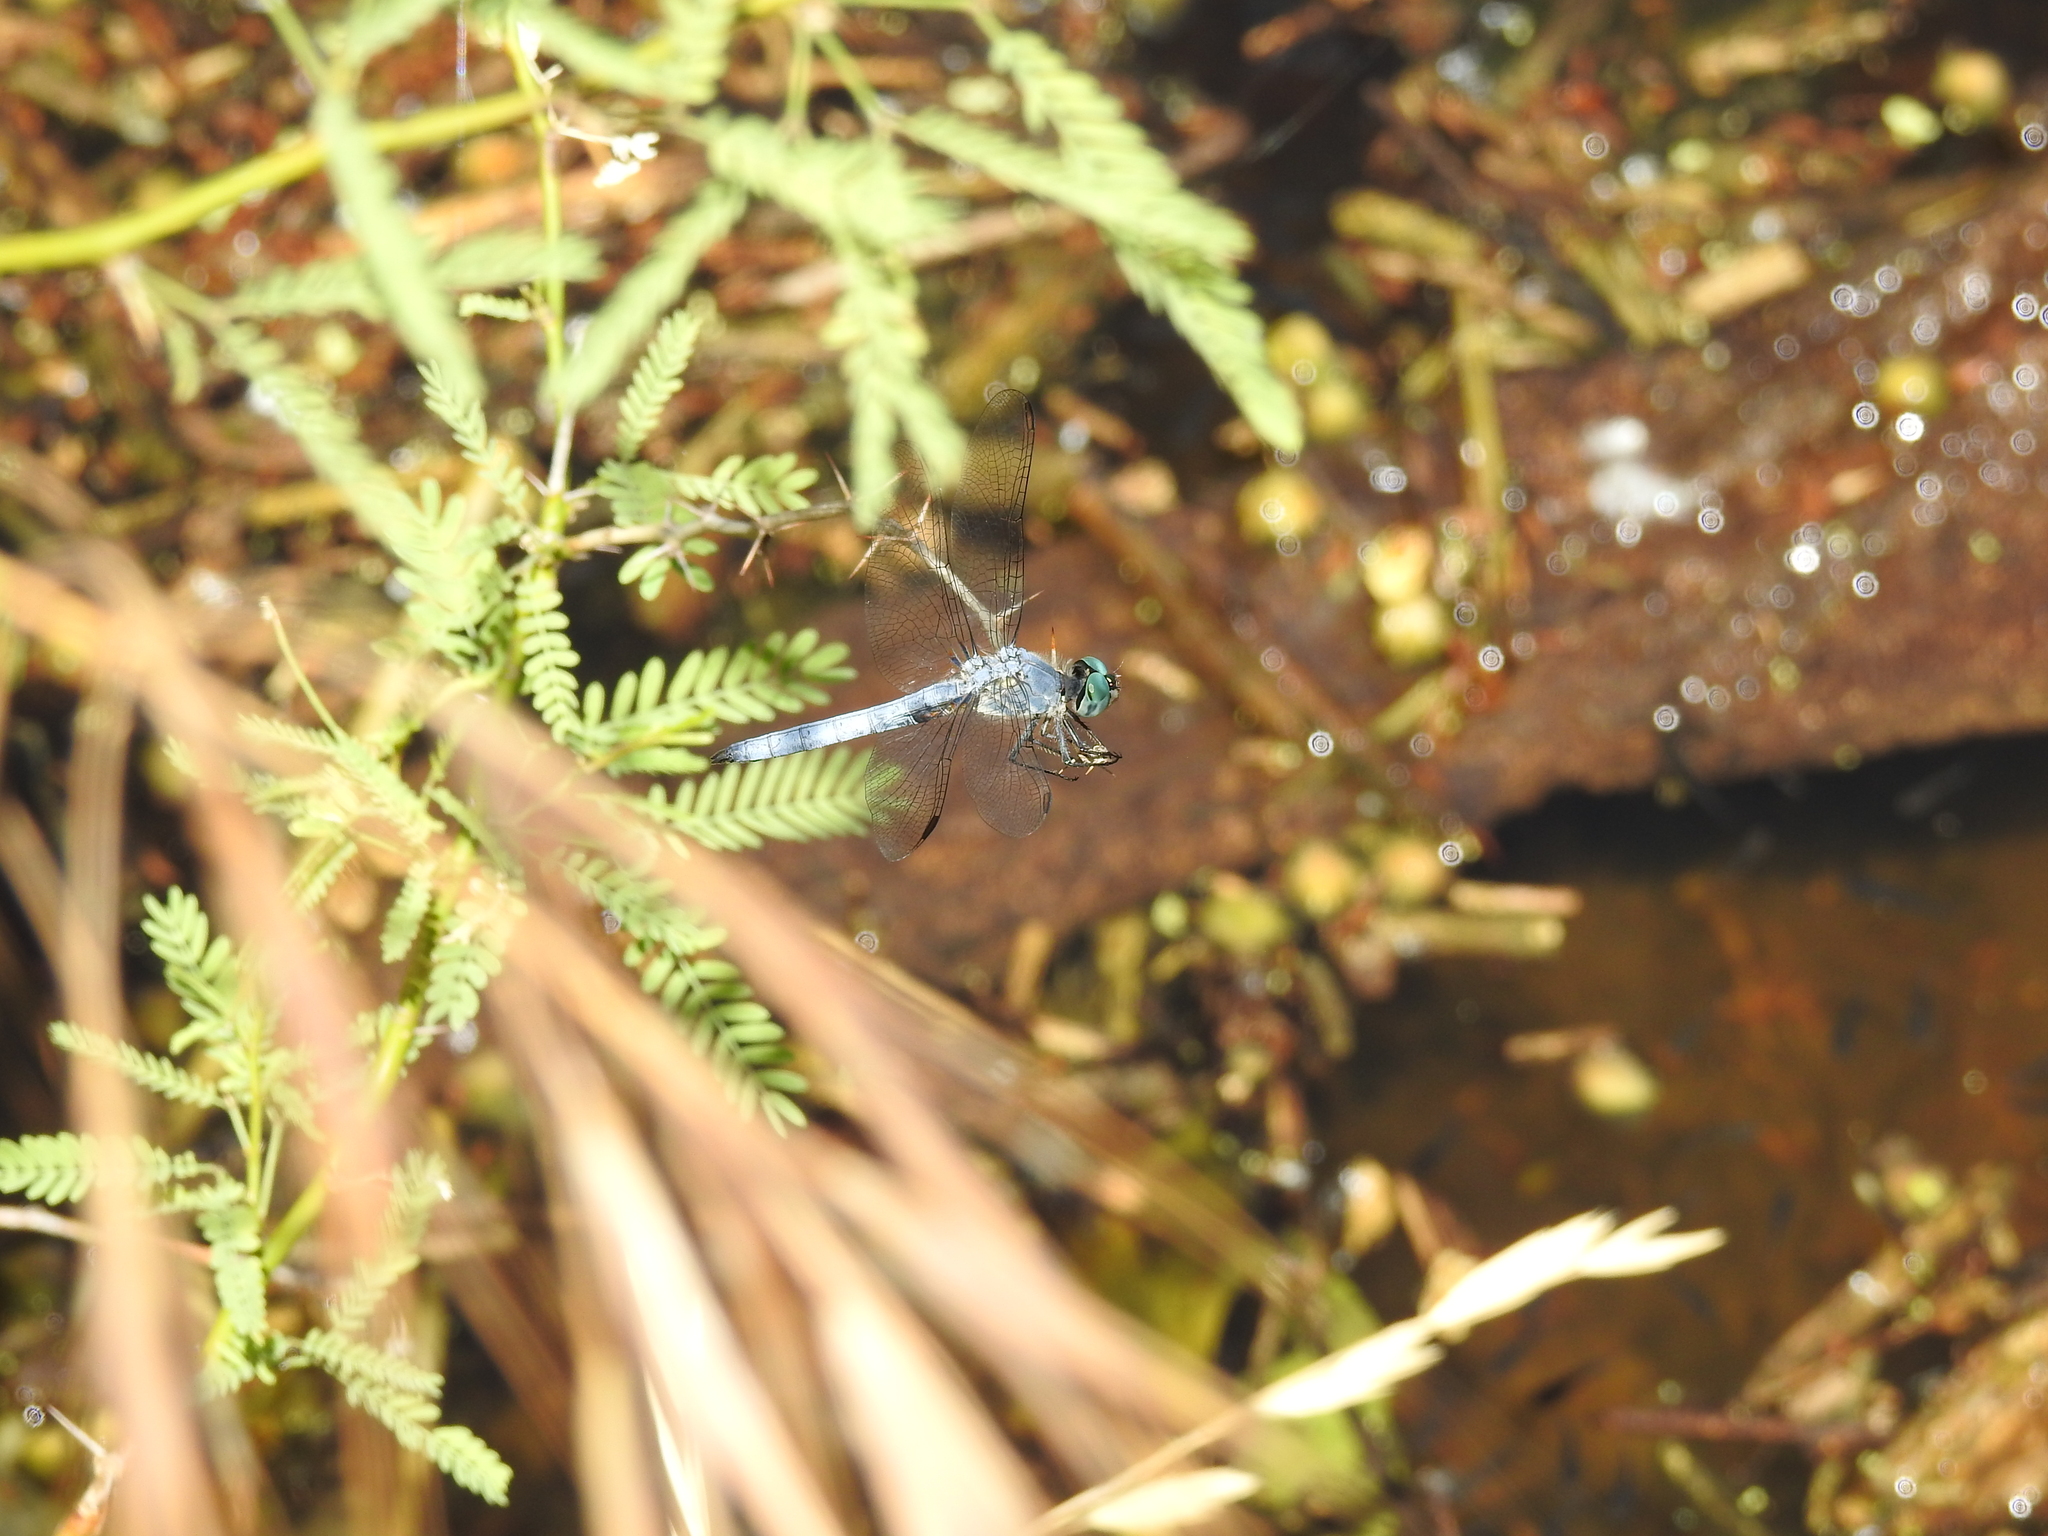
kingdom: Animalia
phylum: Arthropoda
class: Insecta
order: Odonata
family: Libellulidae
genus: Pachydiplax
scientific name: Pachydiplax longipennis
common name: Blue dasher
